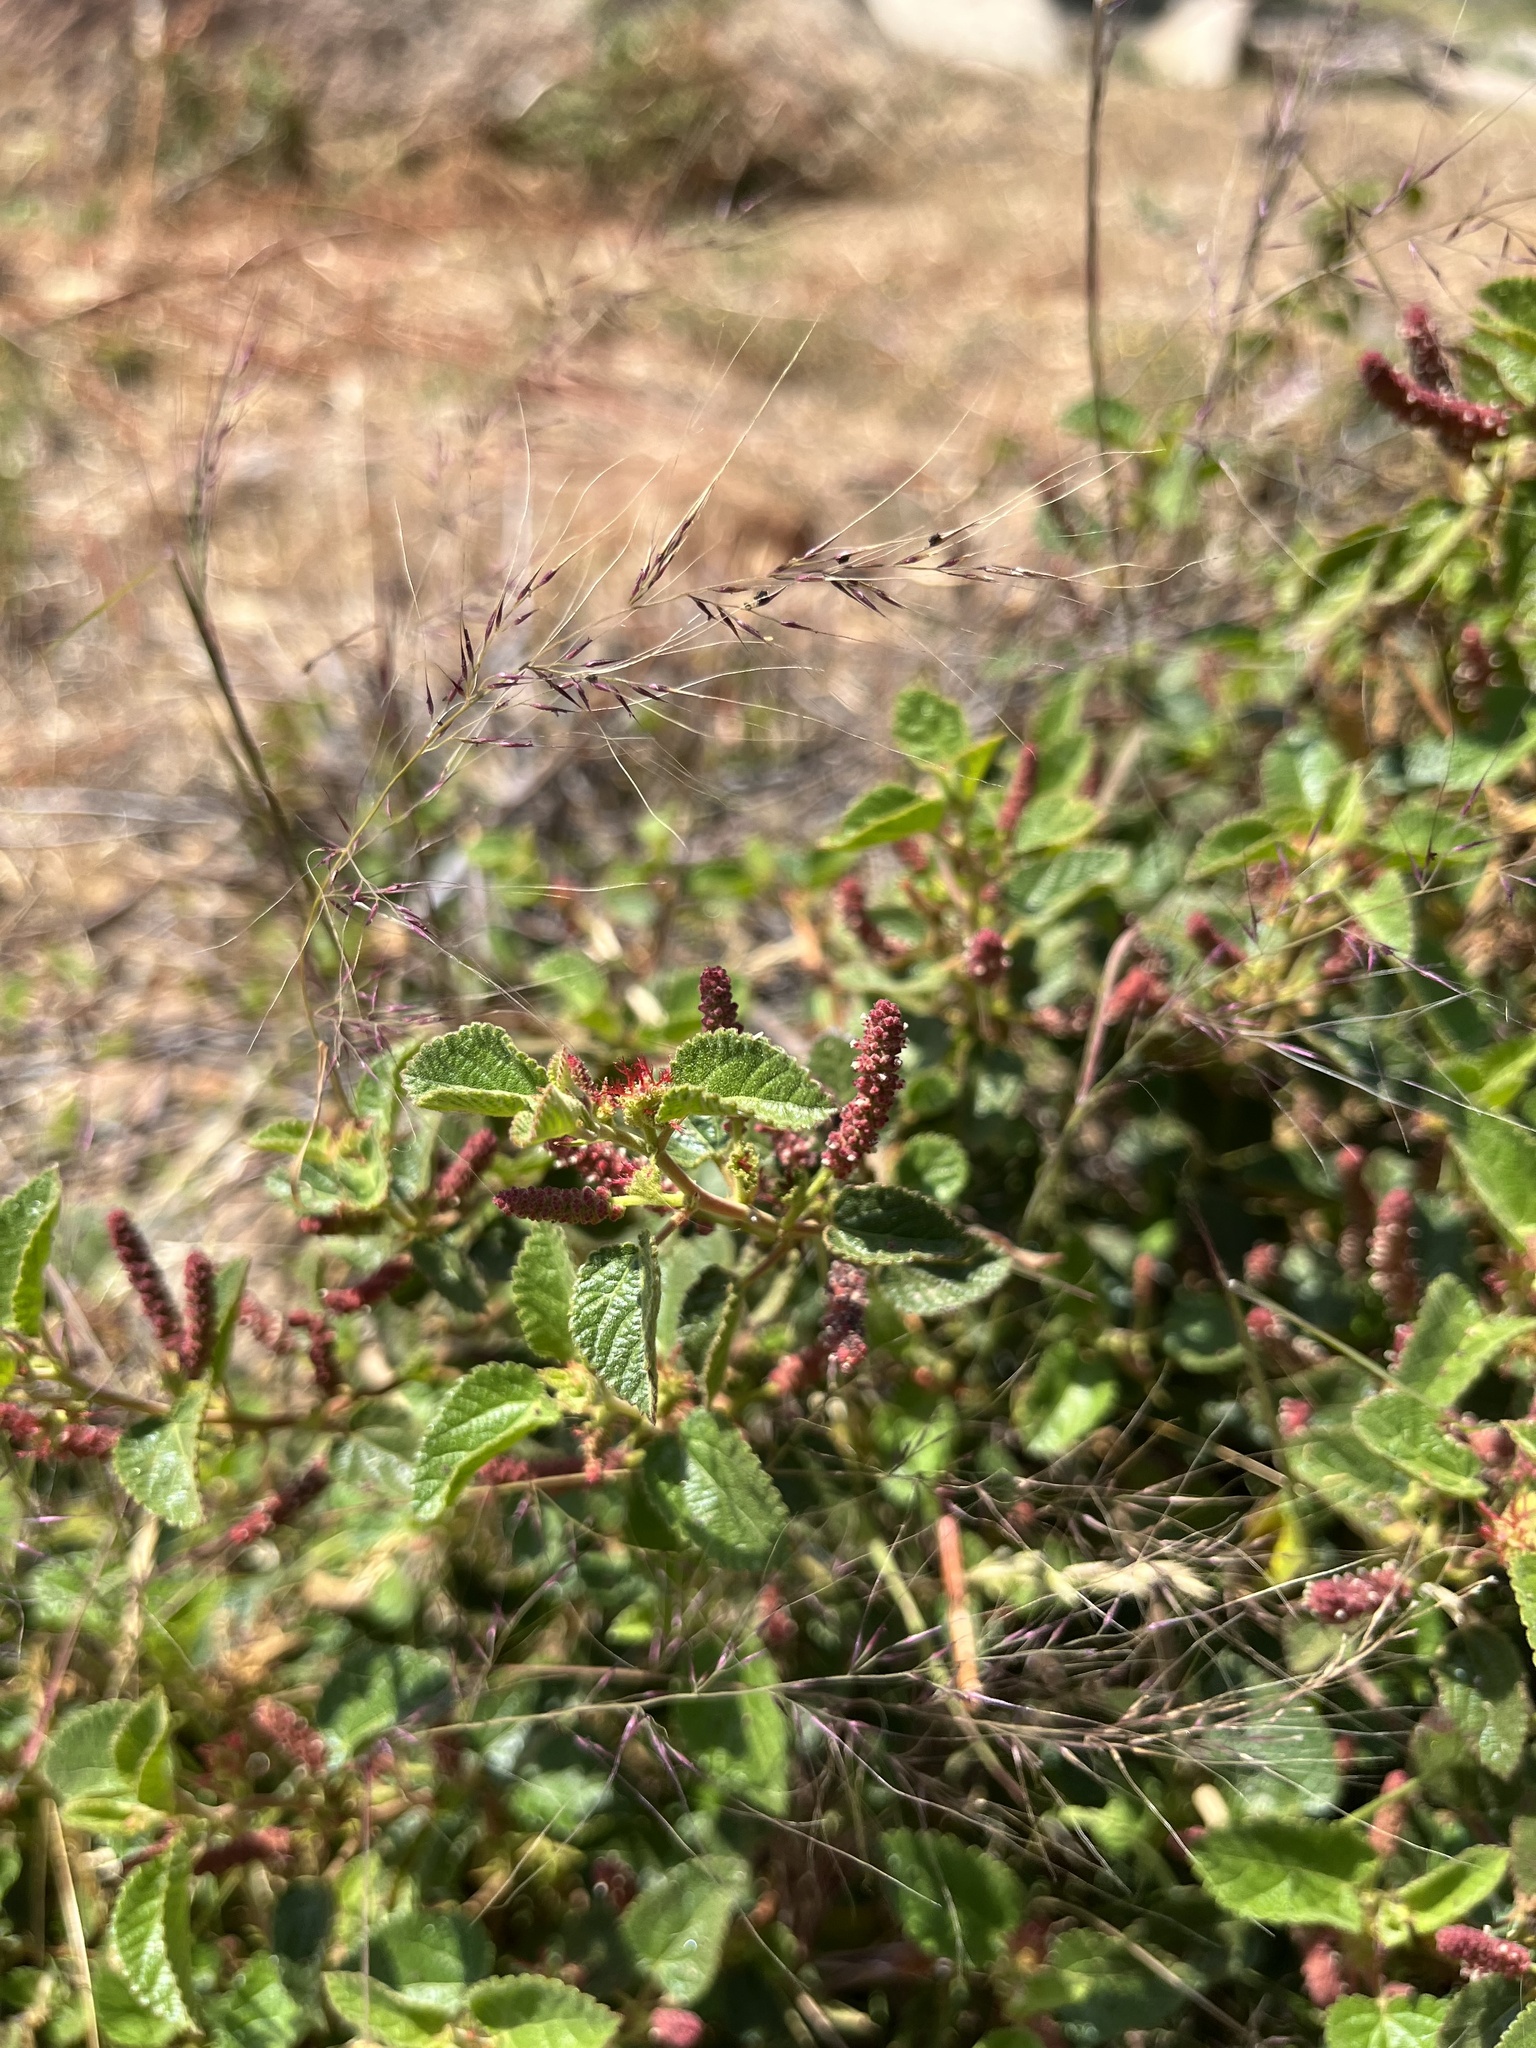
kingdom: Plantae
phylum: Tracheophyta
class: Magnoliopsida
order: Malpighiales
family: Euphorbiaceae
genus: Acalypha
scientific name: Acalypha californica
